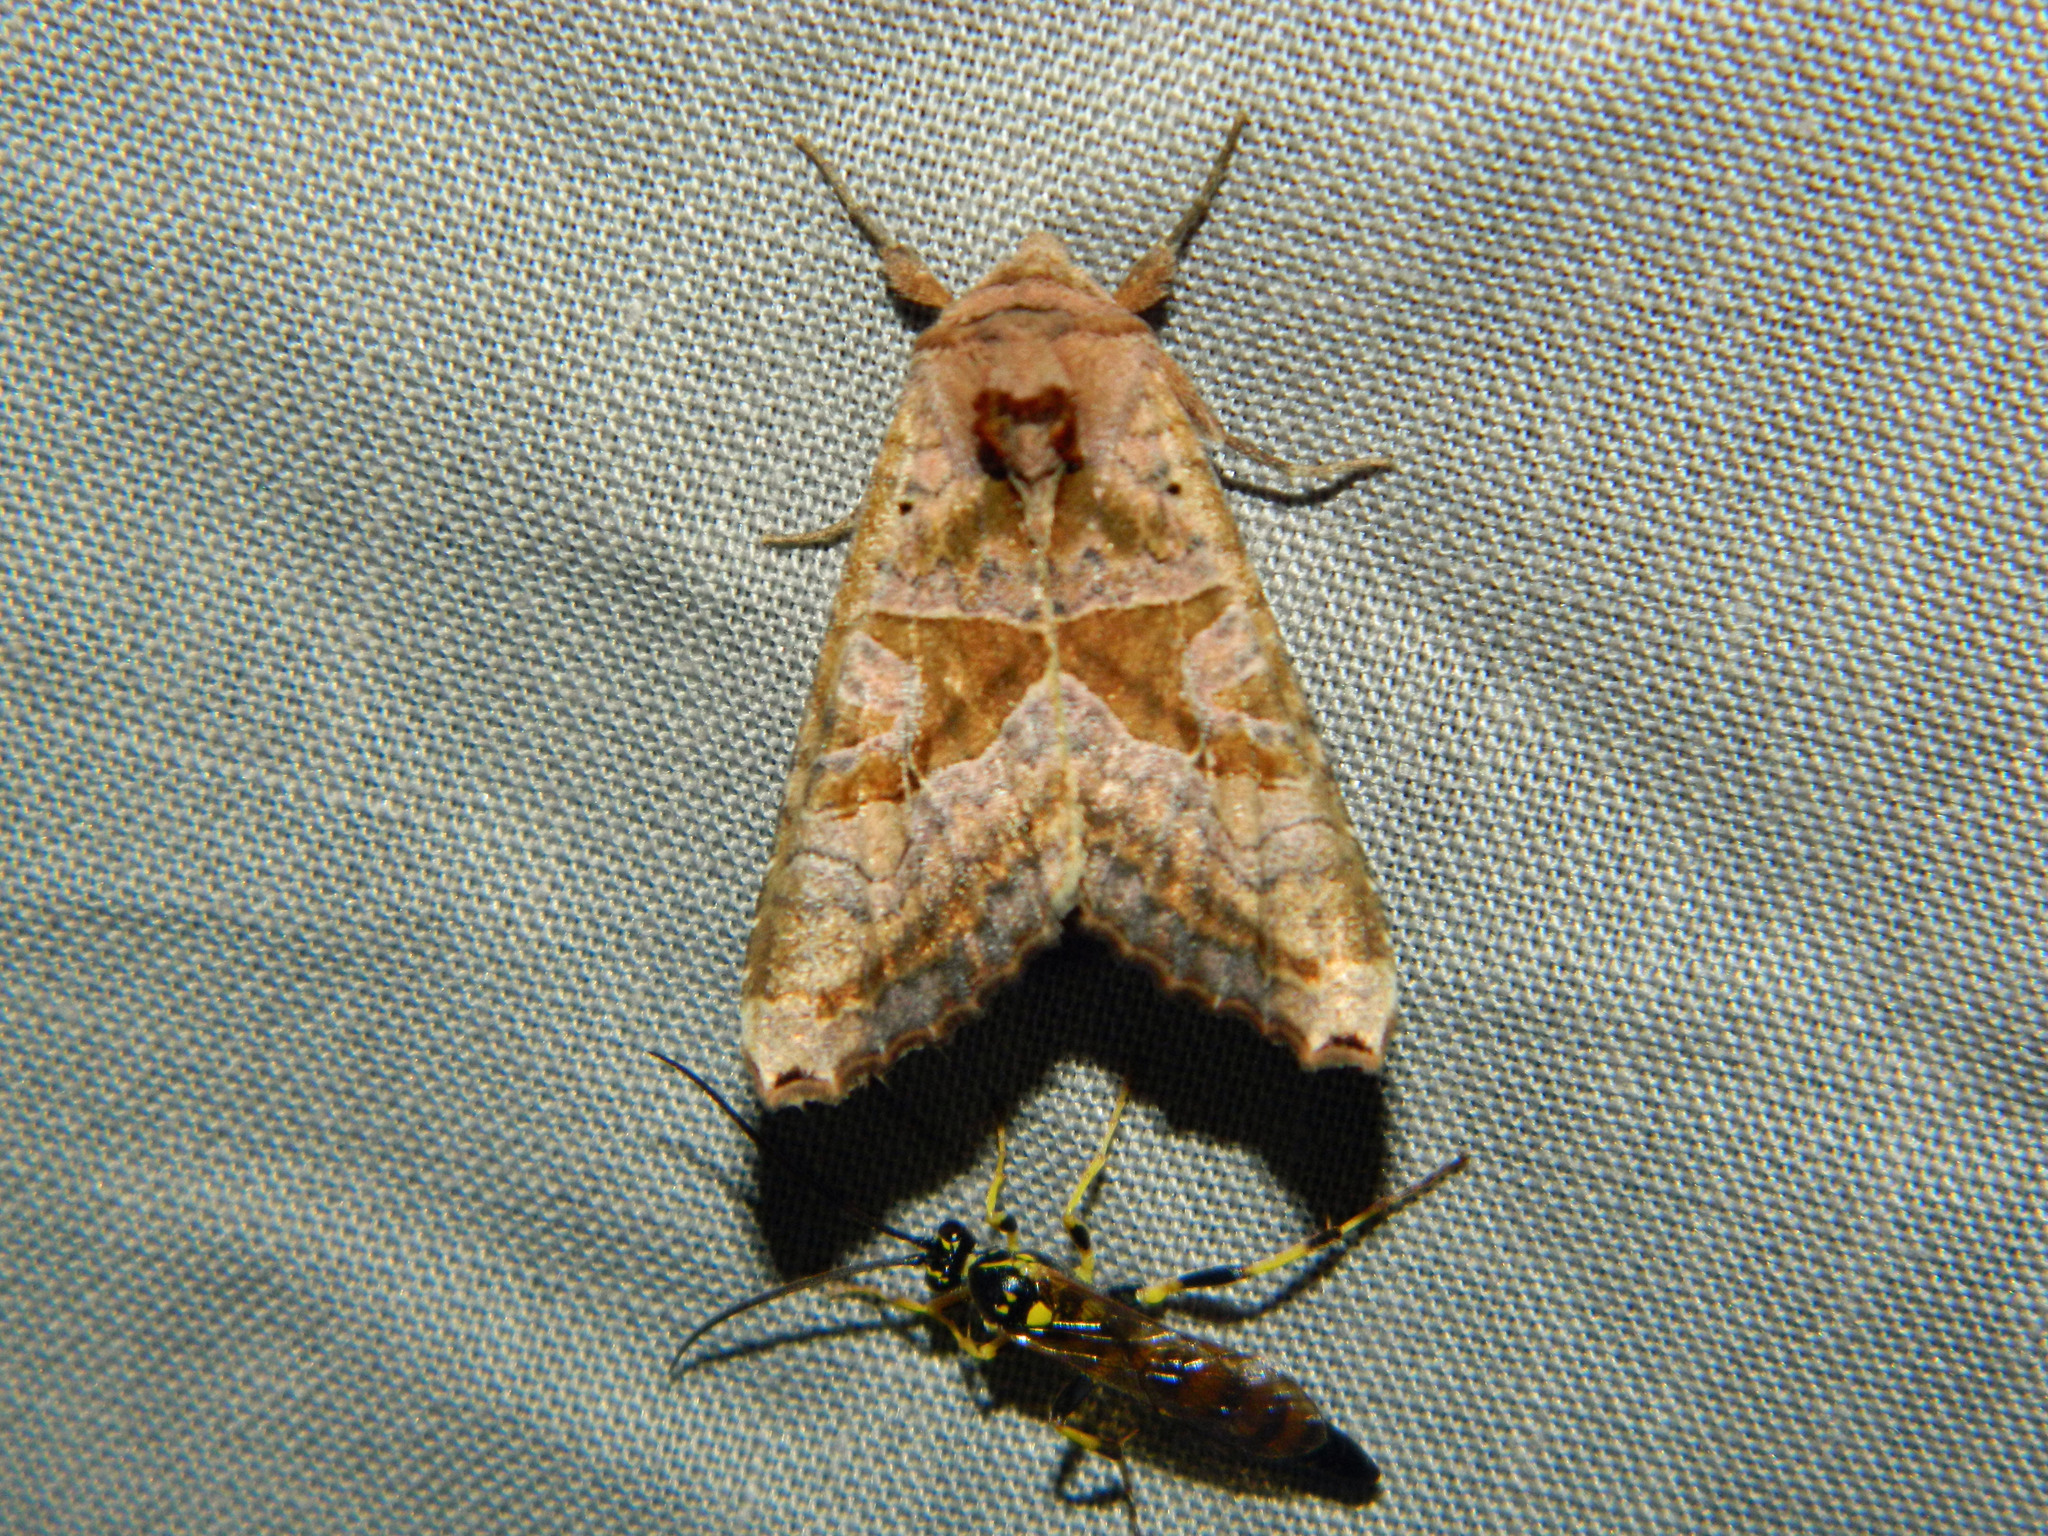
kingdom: Animalia
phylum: Arthropoda
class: Insecta
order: Lepidoptera
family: Noctuidae
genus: Phlogophora
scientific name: Phlogophora periculosa
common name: Brown angle shades
